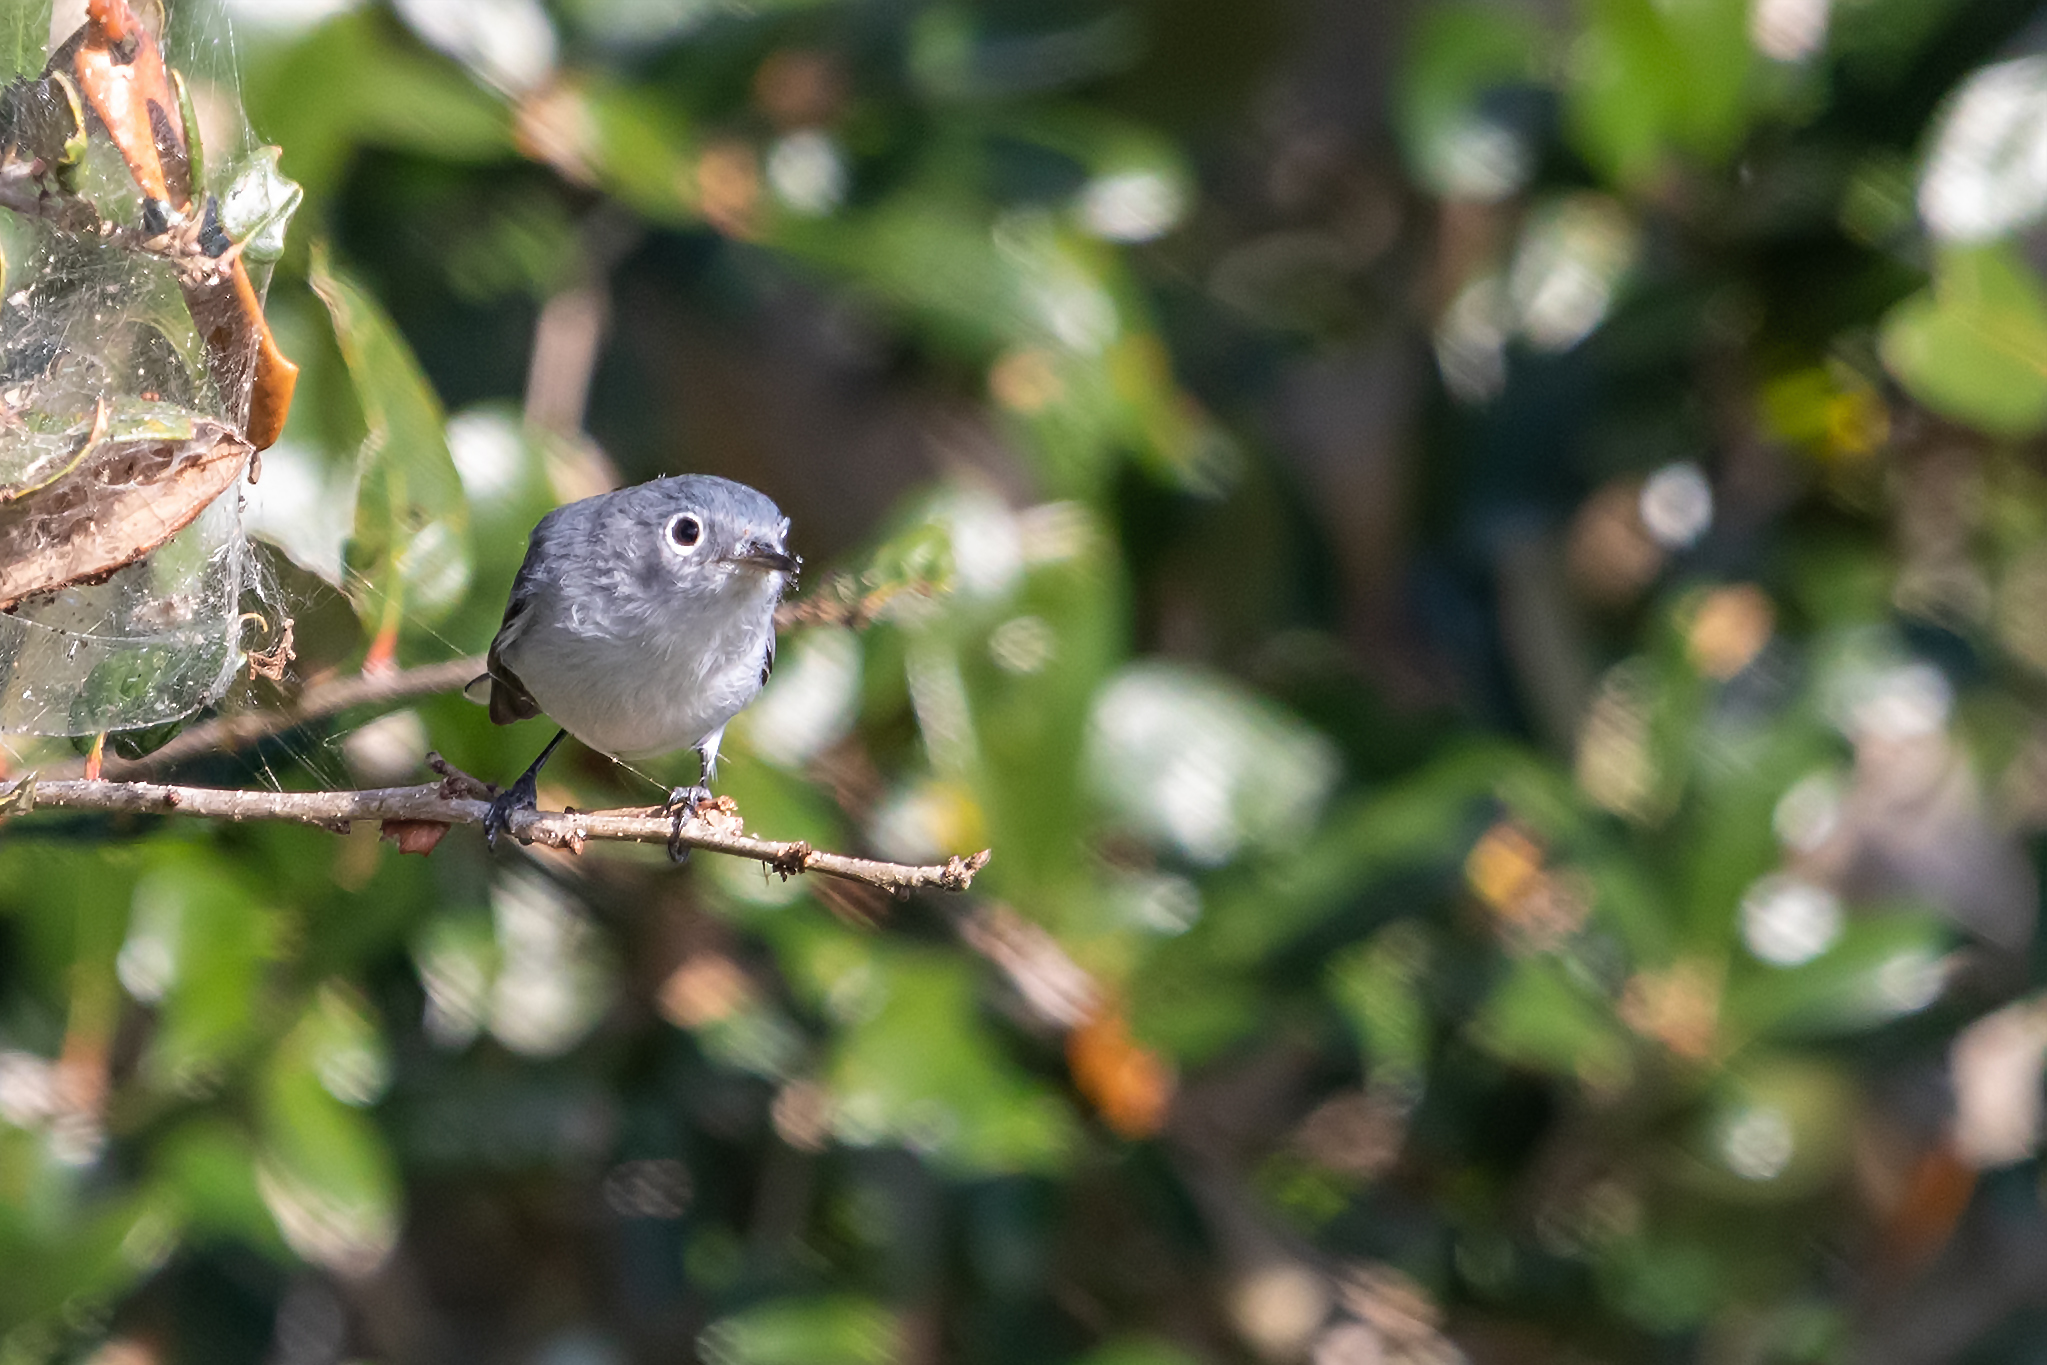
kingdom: Animalia
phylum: Chordata
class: Aves
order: Passeriformes
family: Polioptilidae
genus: Polioptila
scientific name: Polioptila caerulea
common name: Blue-gray gnatcatcher
